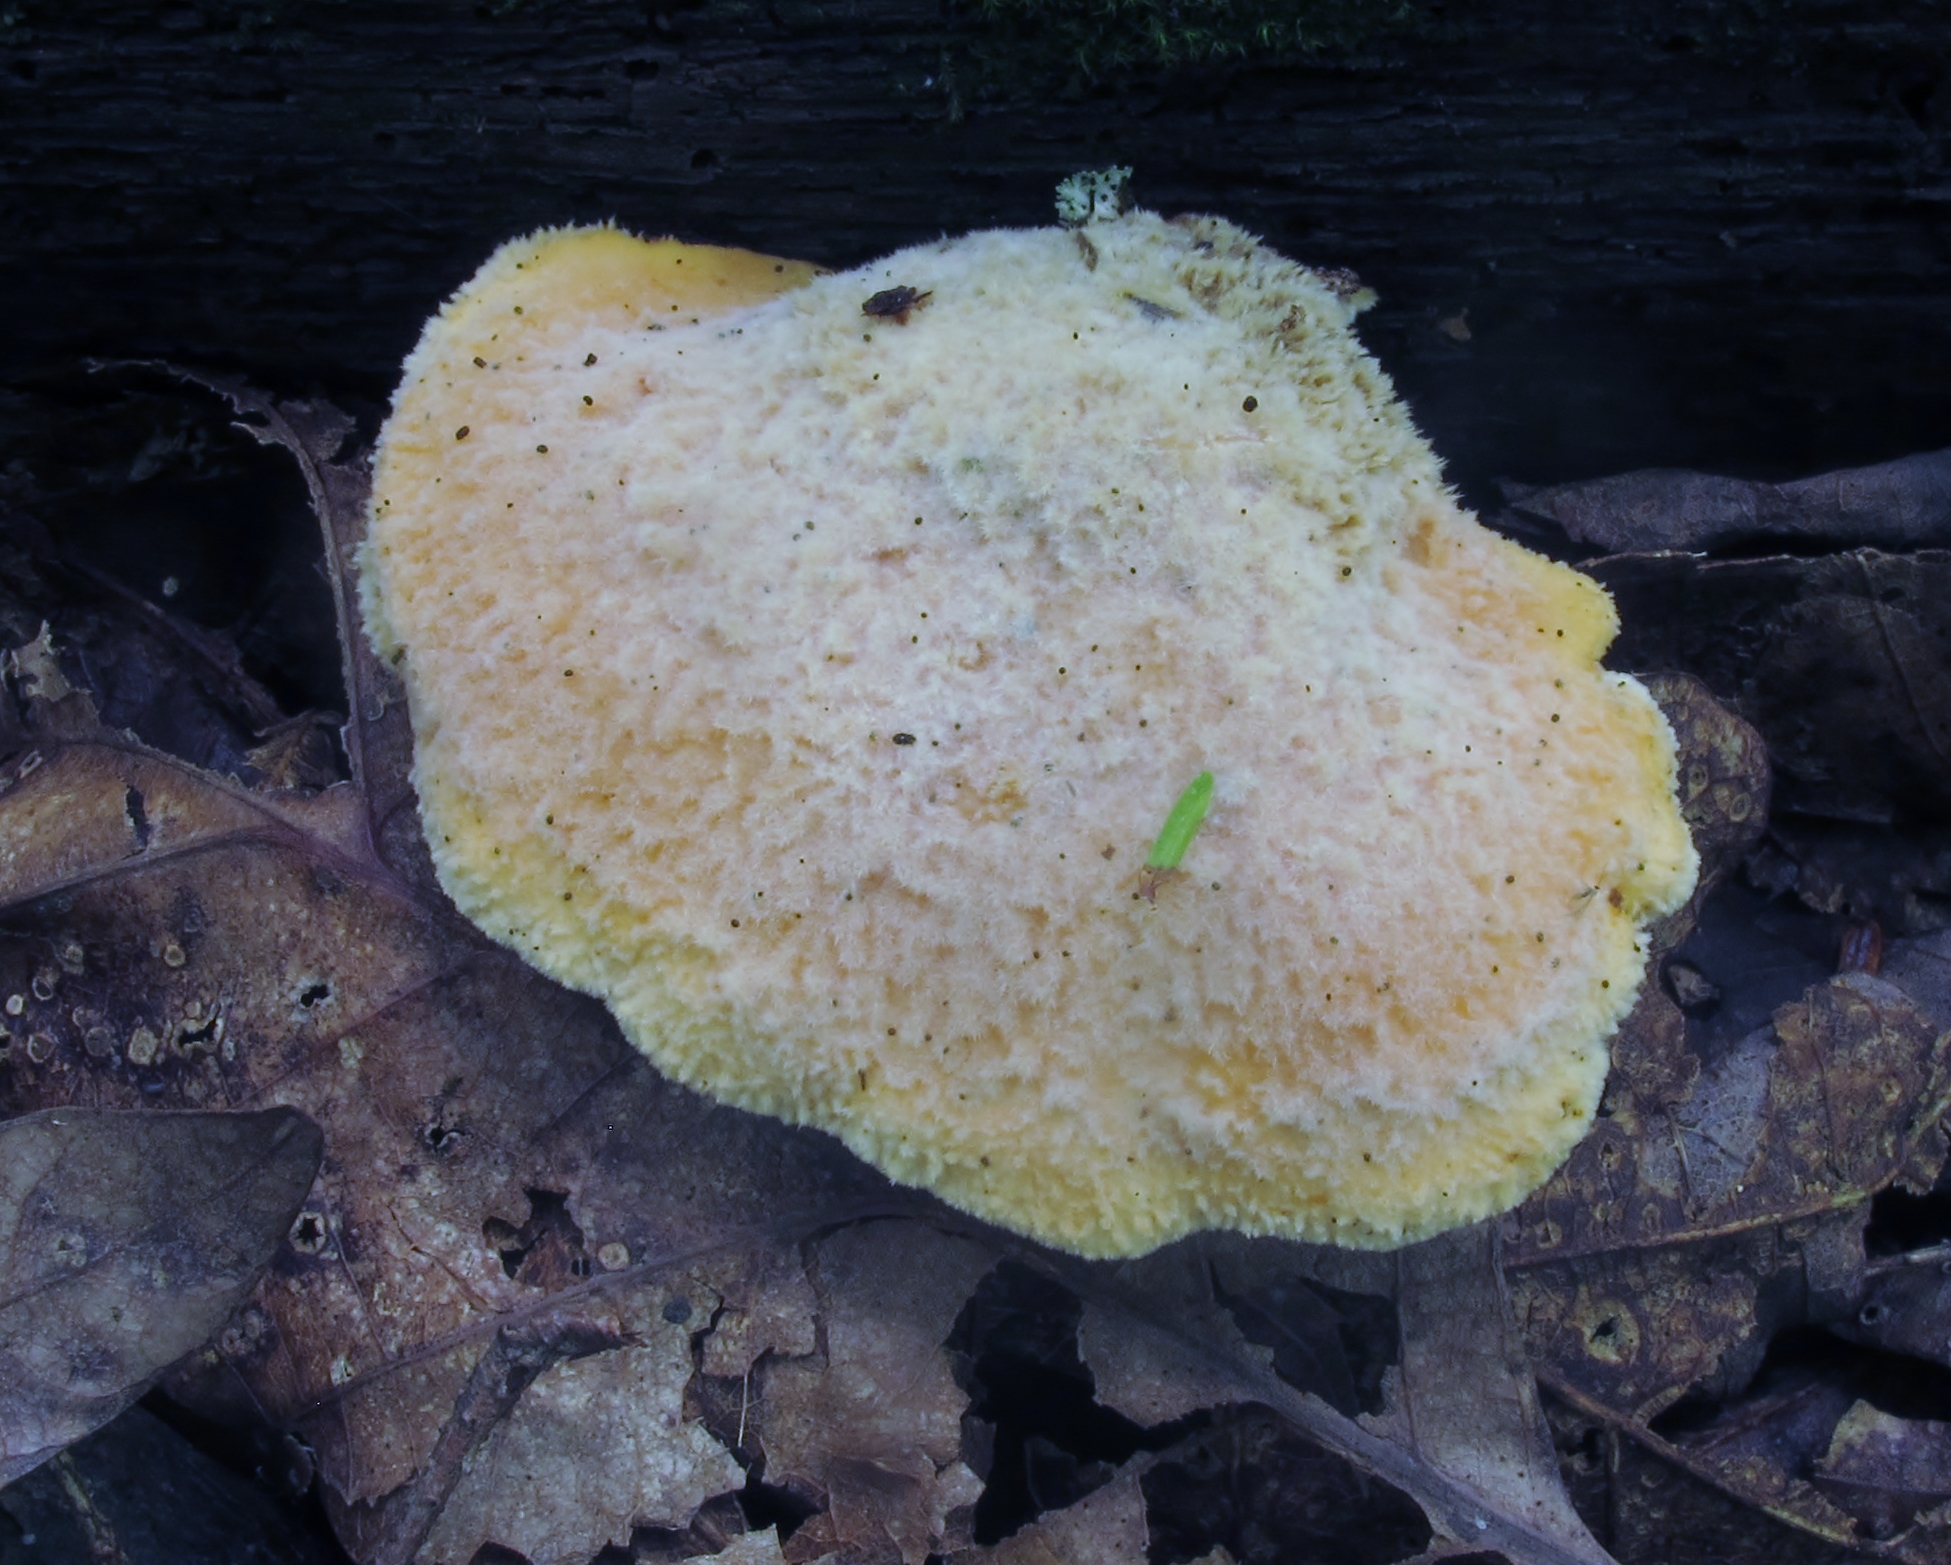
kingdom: Fungi
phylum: Basidiomycota
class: Agaricomycetes
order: Boletales
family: Tapinellaceae
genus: Tapinella
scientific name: Tapinella panuoides
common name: Oyster rollrim
